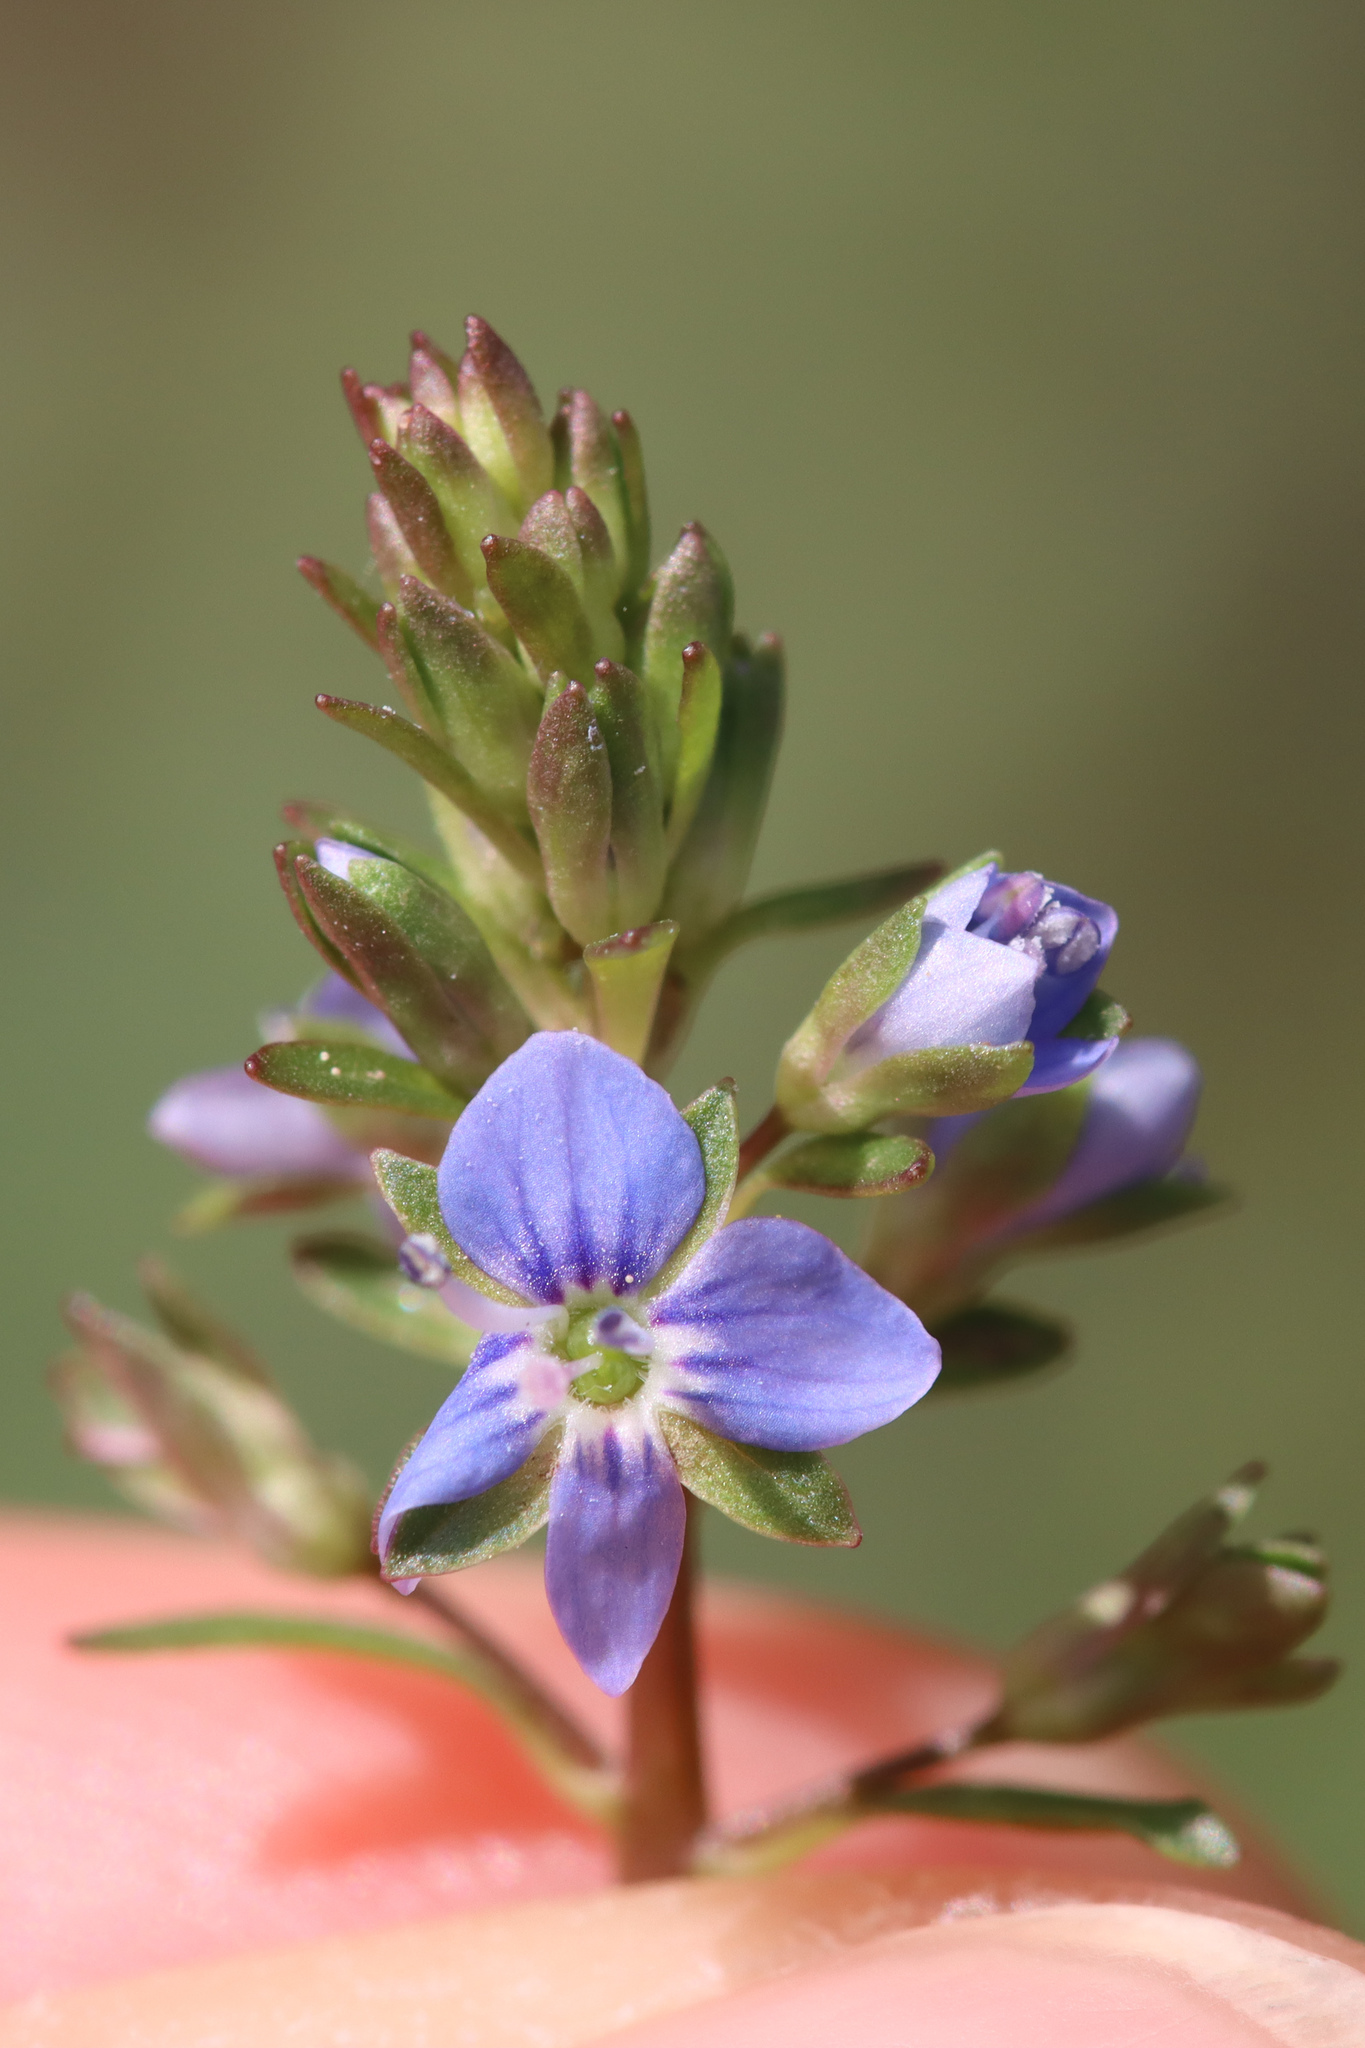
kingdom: Plantae
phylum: Tracheophyta
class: Magnoliopsida
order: Lamiales
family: Plantaginaceae
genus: Veronica
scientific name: Veronica beccabunga
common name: Brooklime
